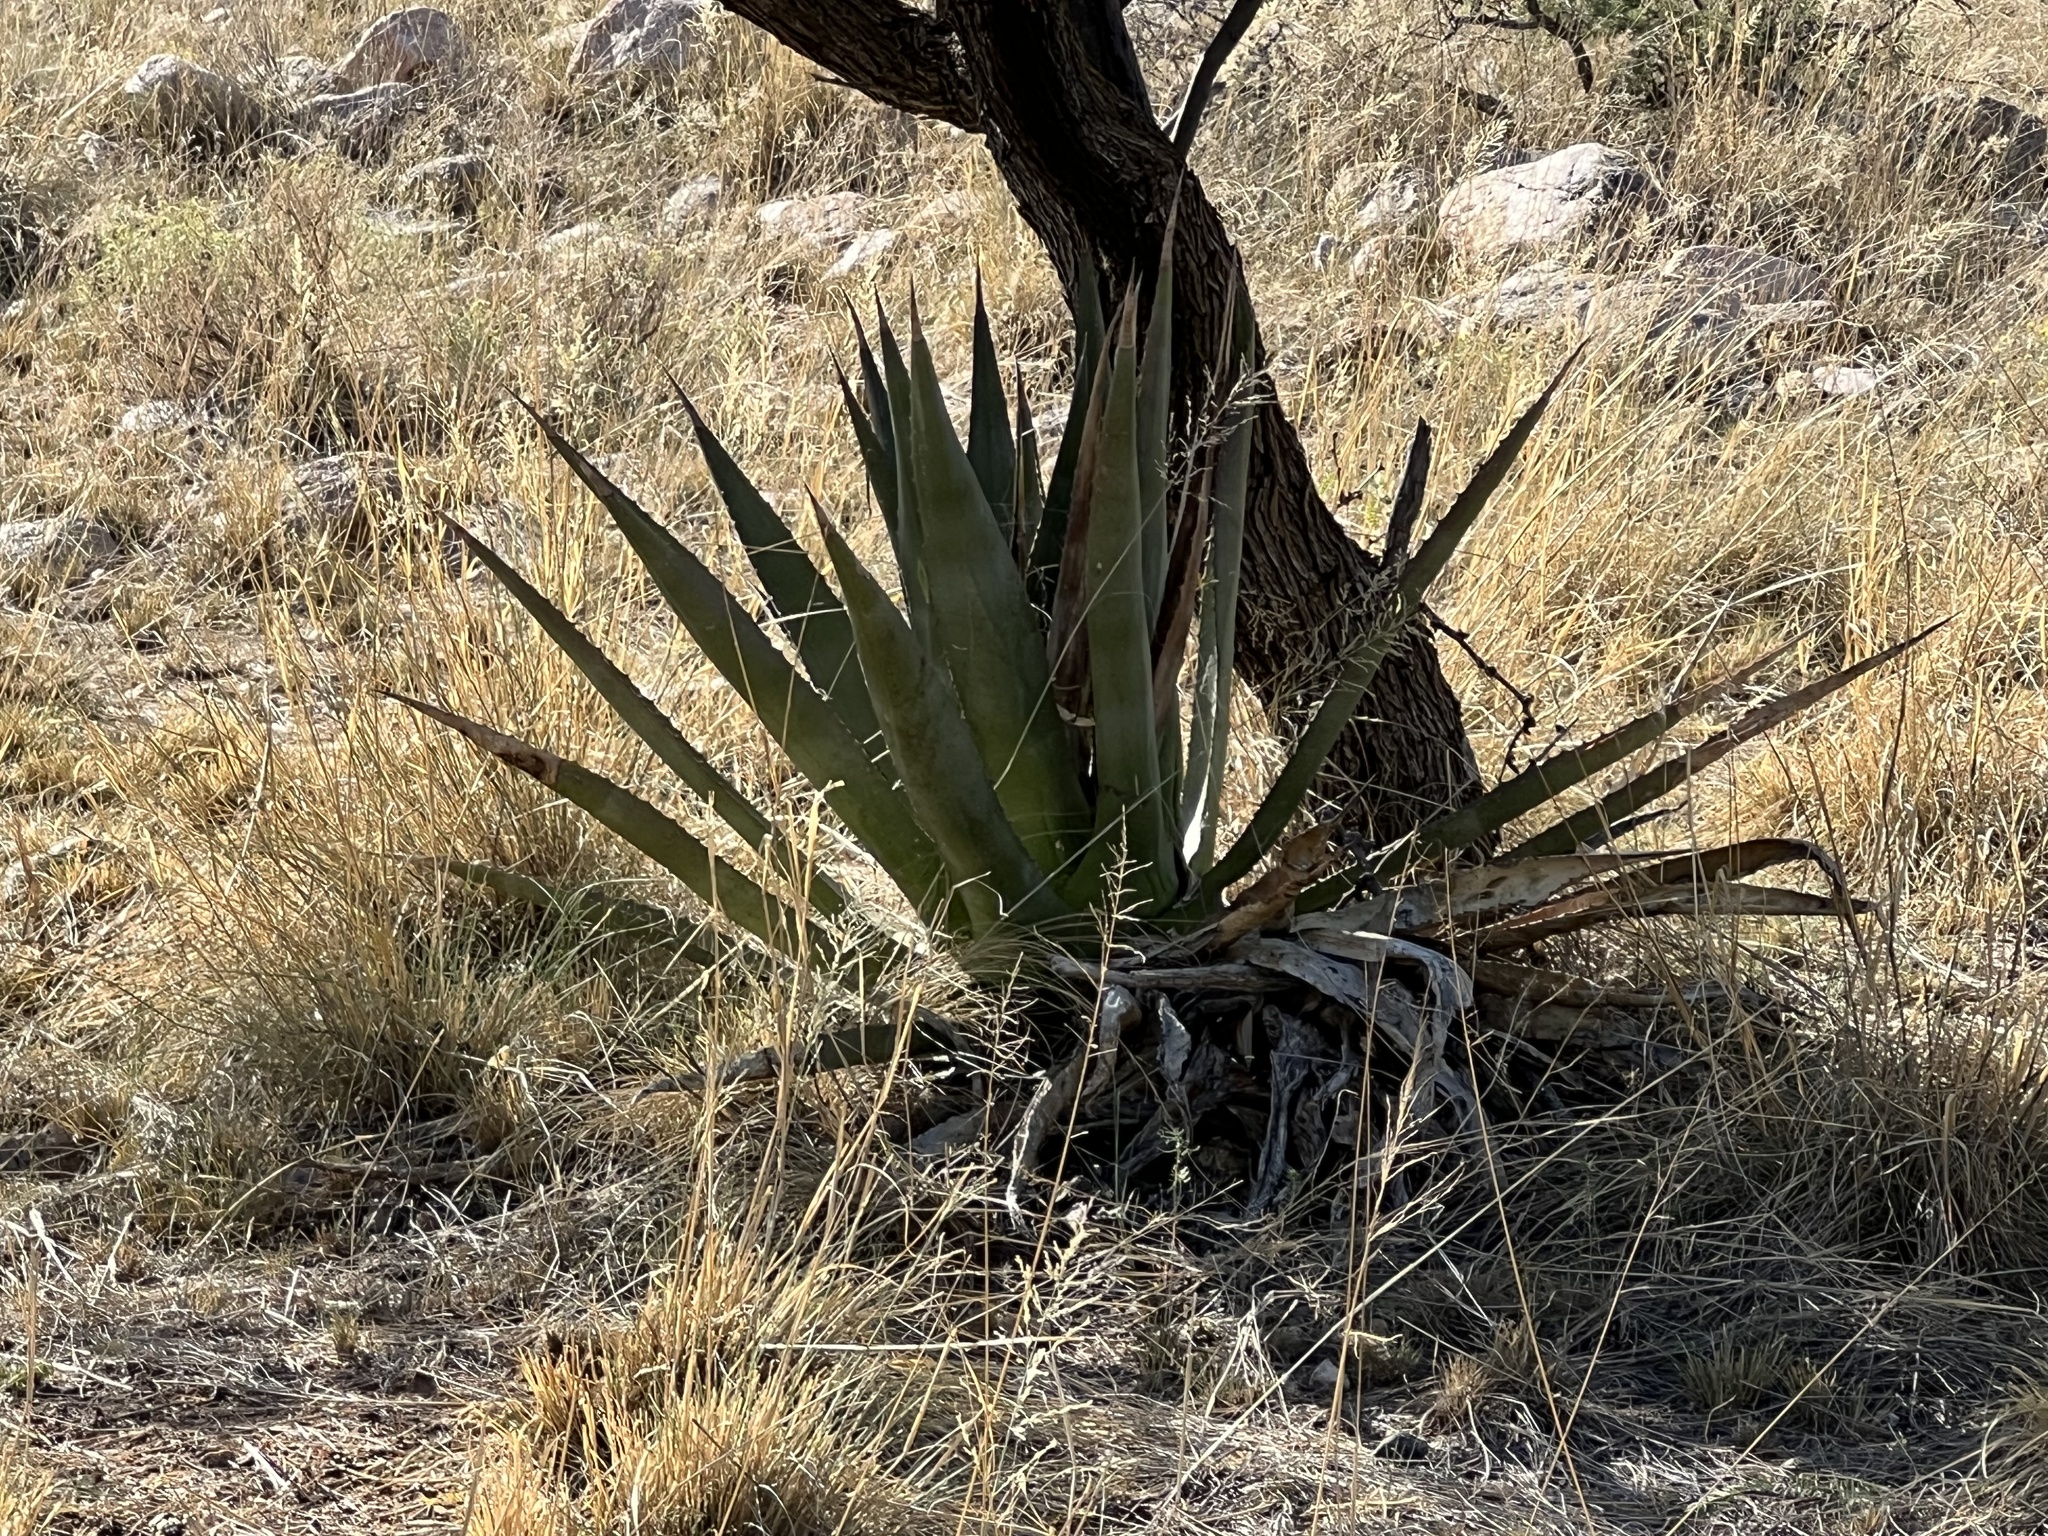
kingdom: Plantae
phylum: Tracheophyta
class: Liliopsida
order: Asparagales
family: Asparagaceae
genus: Agave
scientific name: Agave palmeri
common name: Palmer agave
